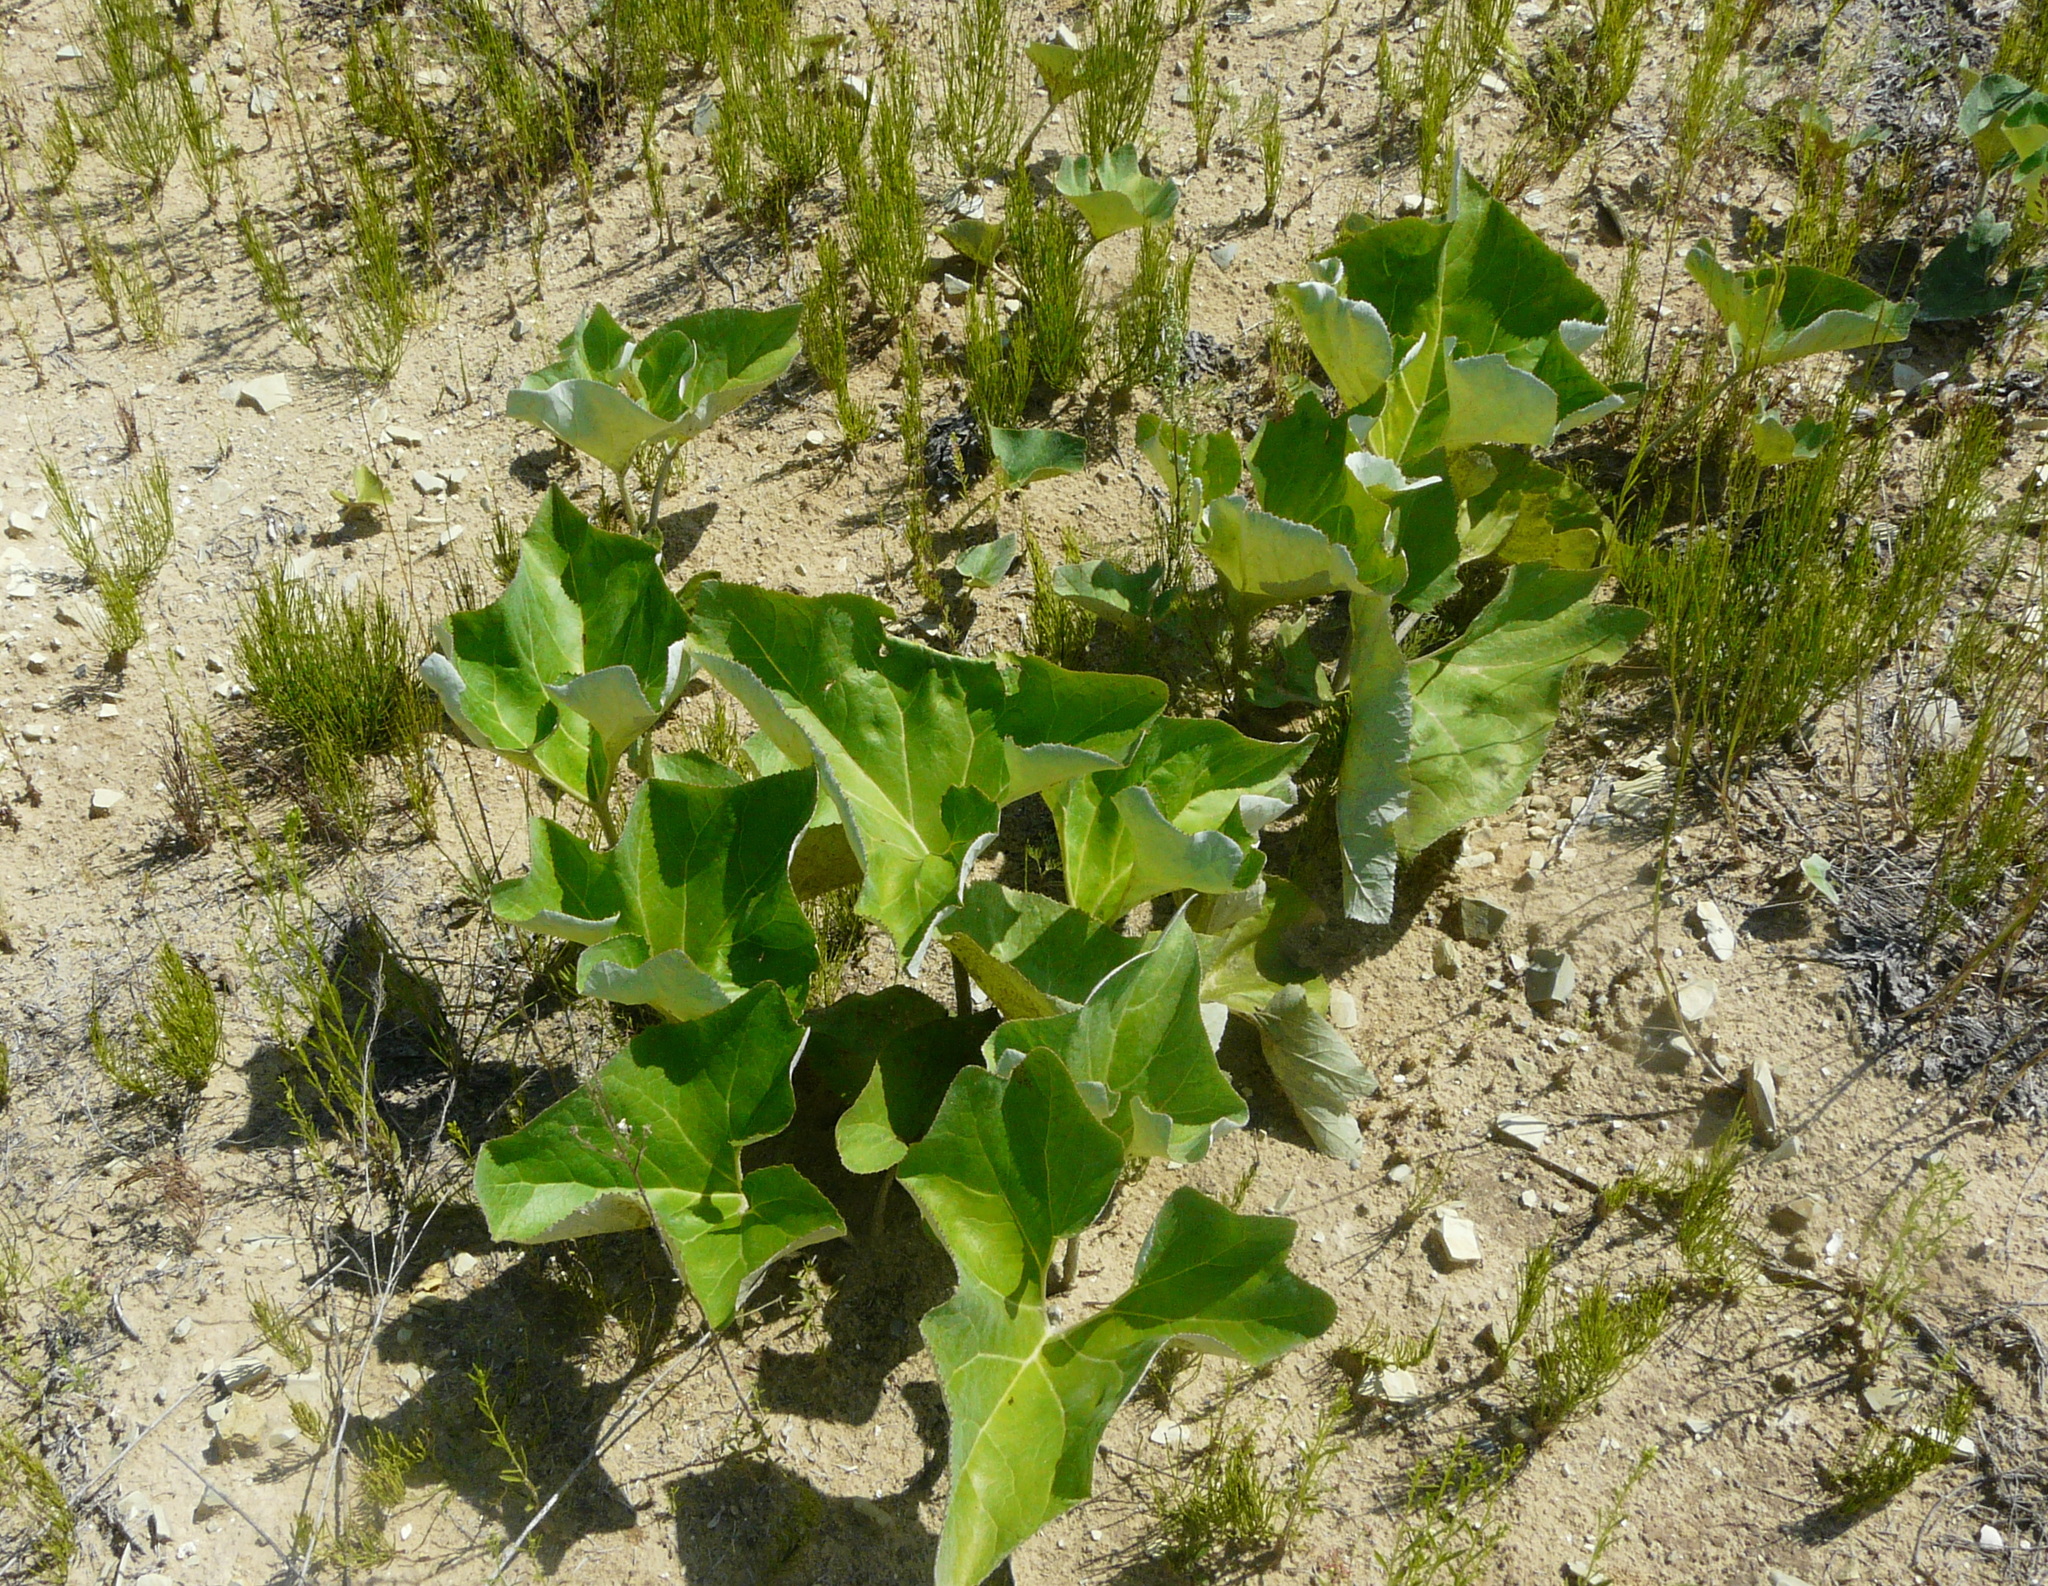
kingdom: Plantae
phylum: Tracheophyta
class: Magnoliopsida
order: Asterales
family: Asteraceae
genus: Petasites
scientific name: Petasites spurius
